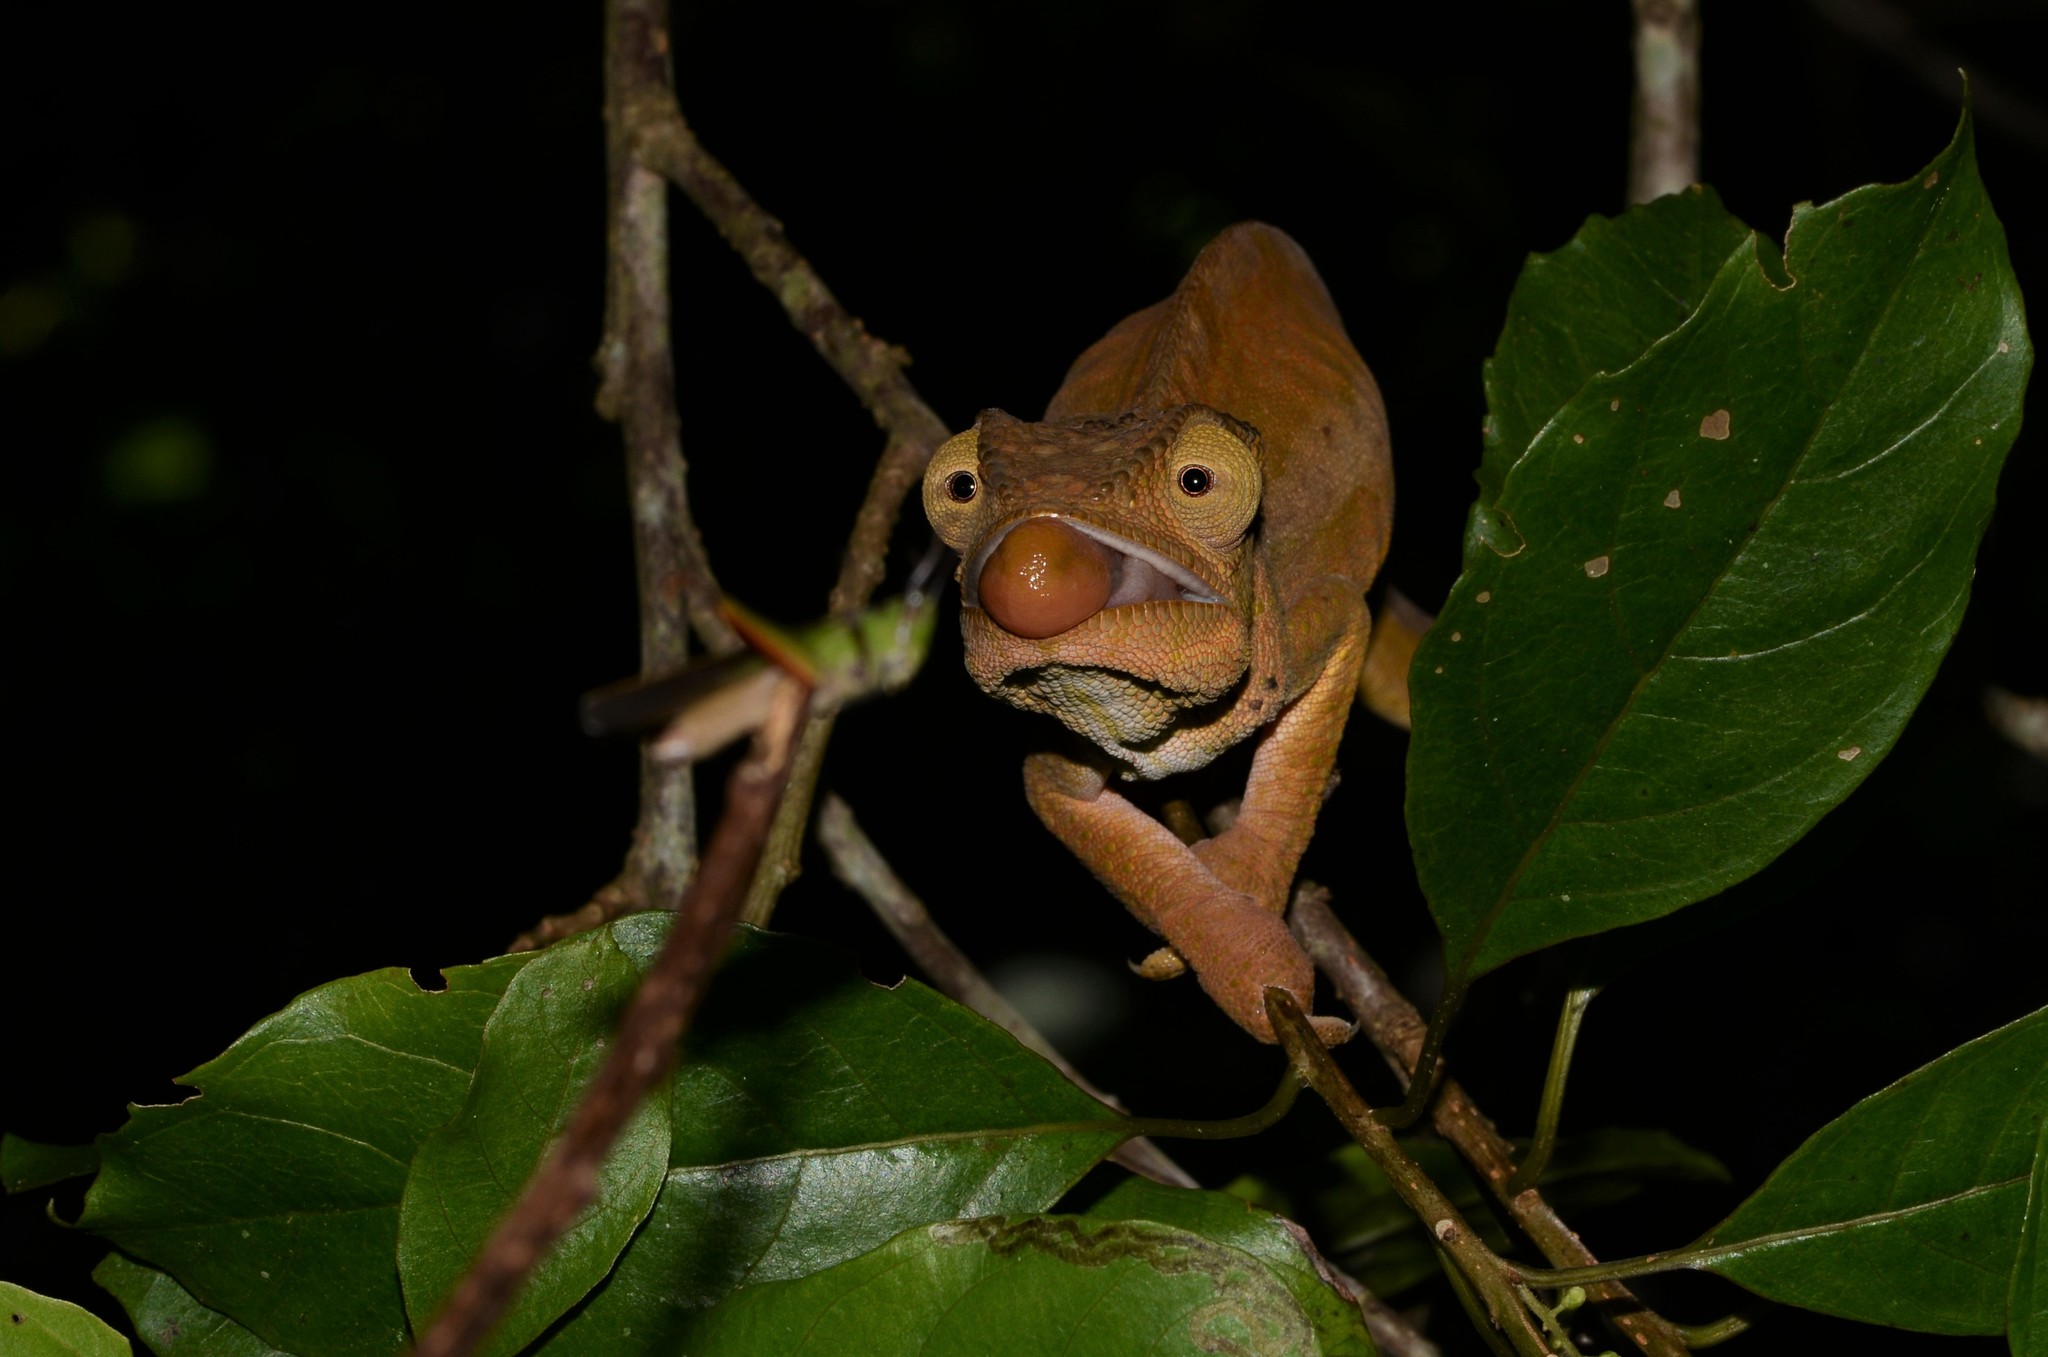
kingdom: Animalia
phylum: Chordata
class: Squamata
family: Chamaeleonidae
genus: Calumma
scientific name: Calumma ambreense
